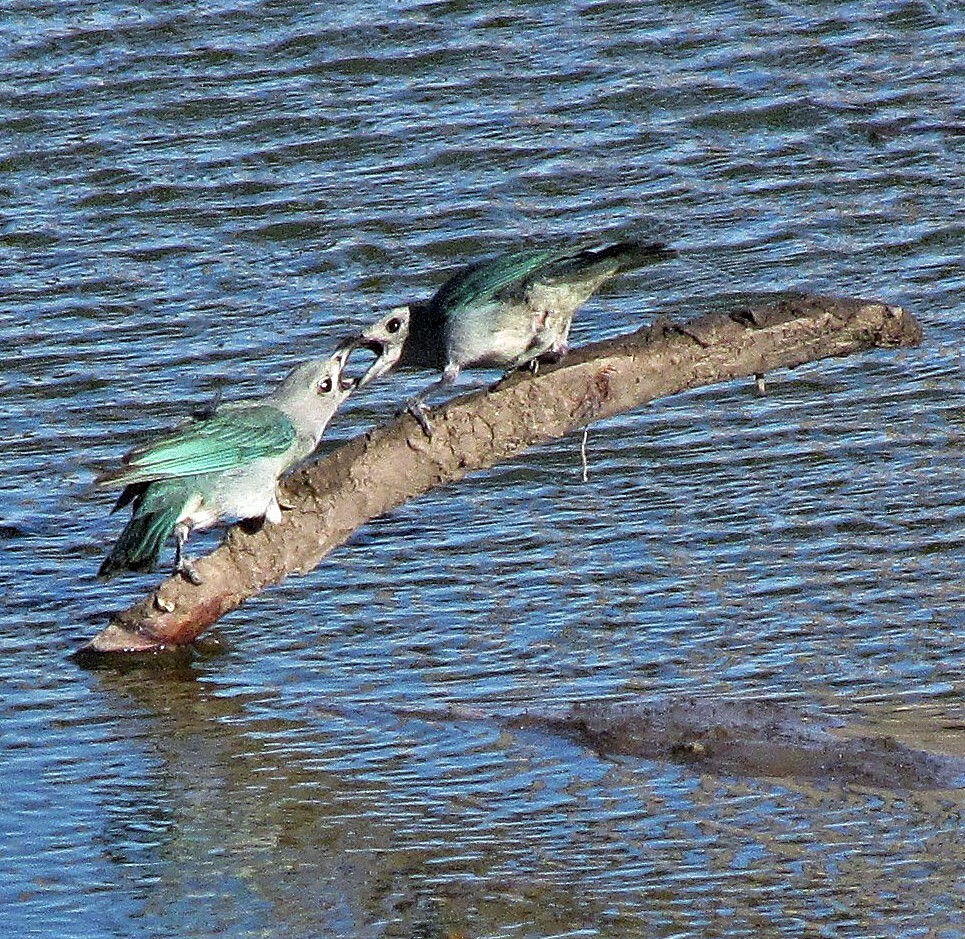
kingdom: Animalia
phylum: Chordata
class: Aves
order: Passeriformes
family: Thraupidae
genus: Thraupis
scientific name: Thraupis sayaca
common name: Sayaca tanager
